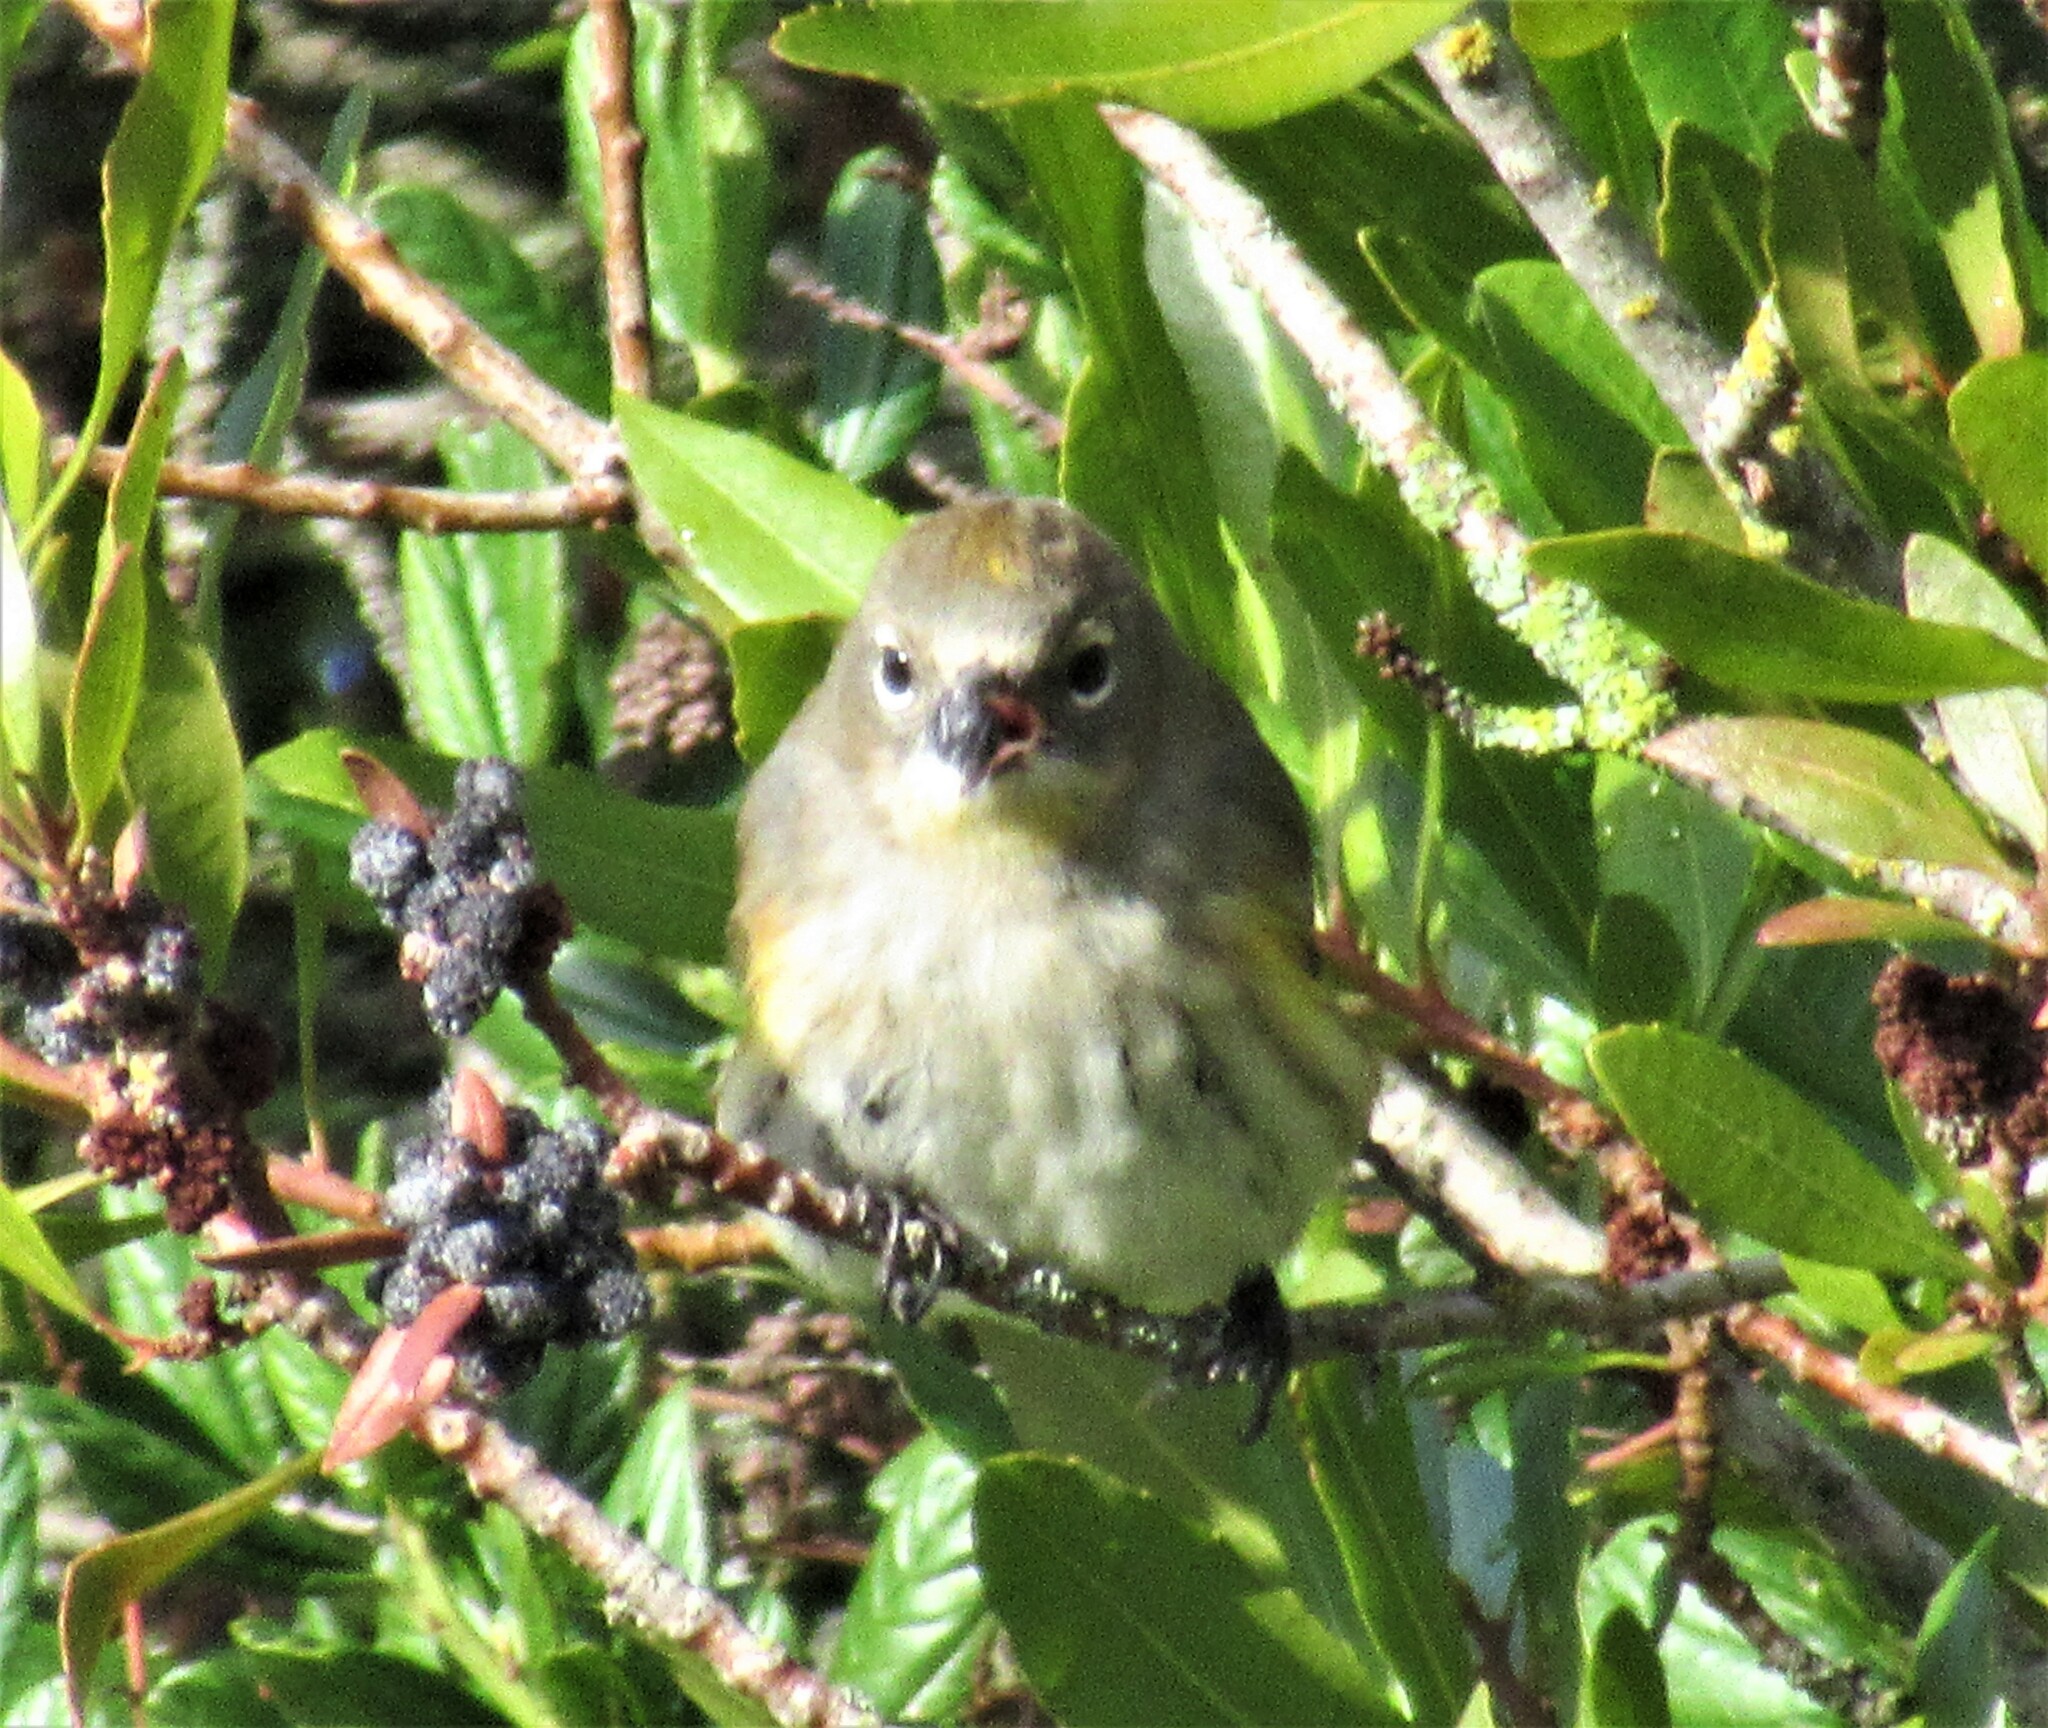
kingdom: Animalia
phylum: Chordata
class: Aves
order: Passeriformes
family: Parulidae
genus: Setophaga
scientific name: Setophaga coronata
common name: Myrtle warbler
